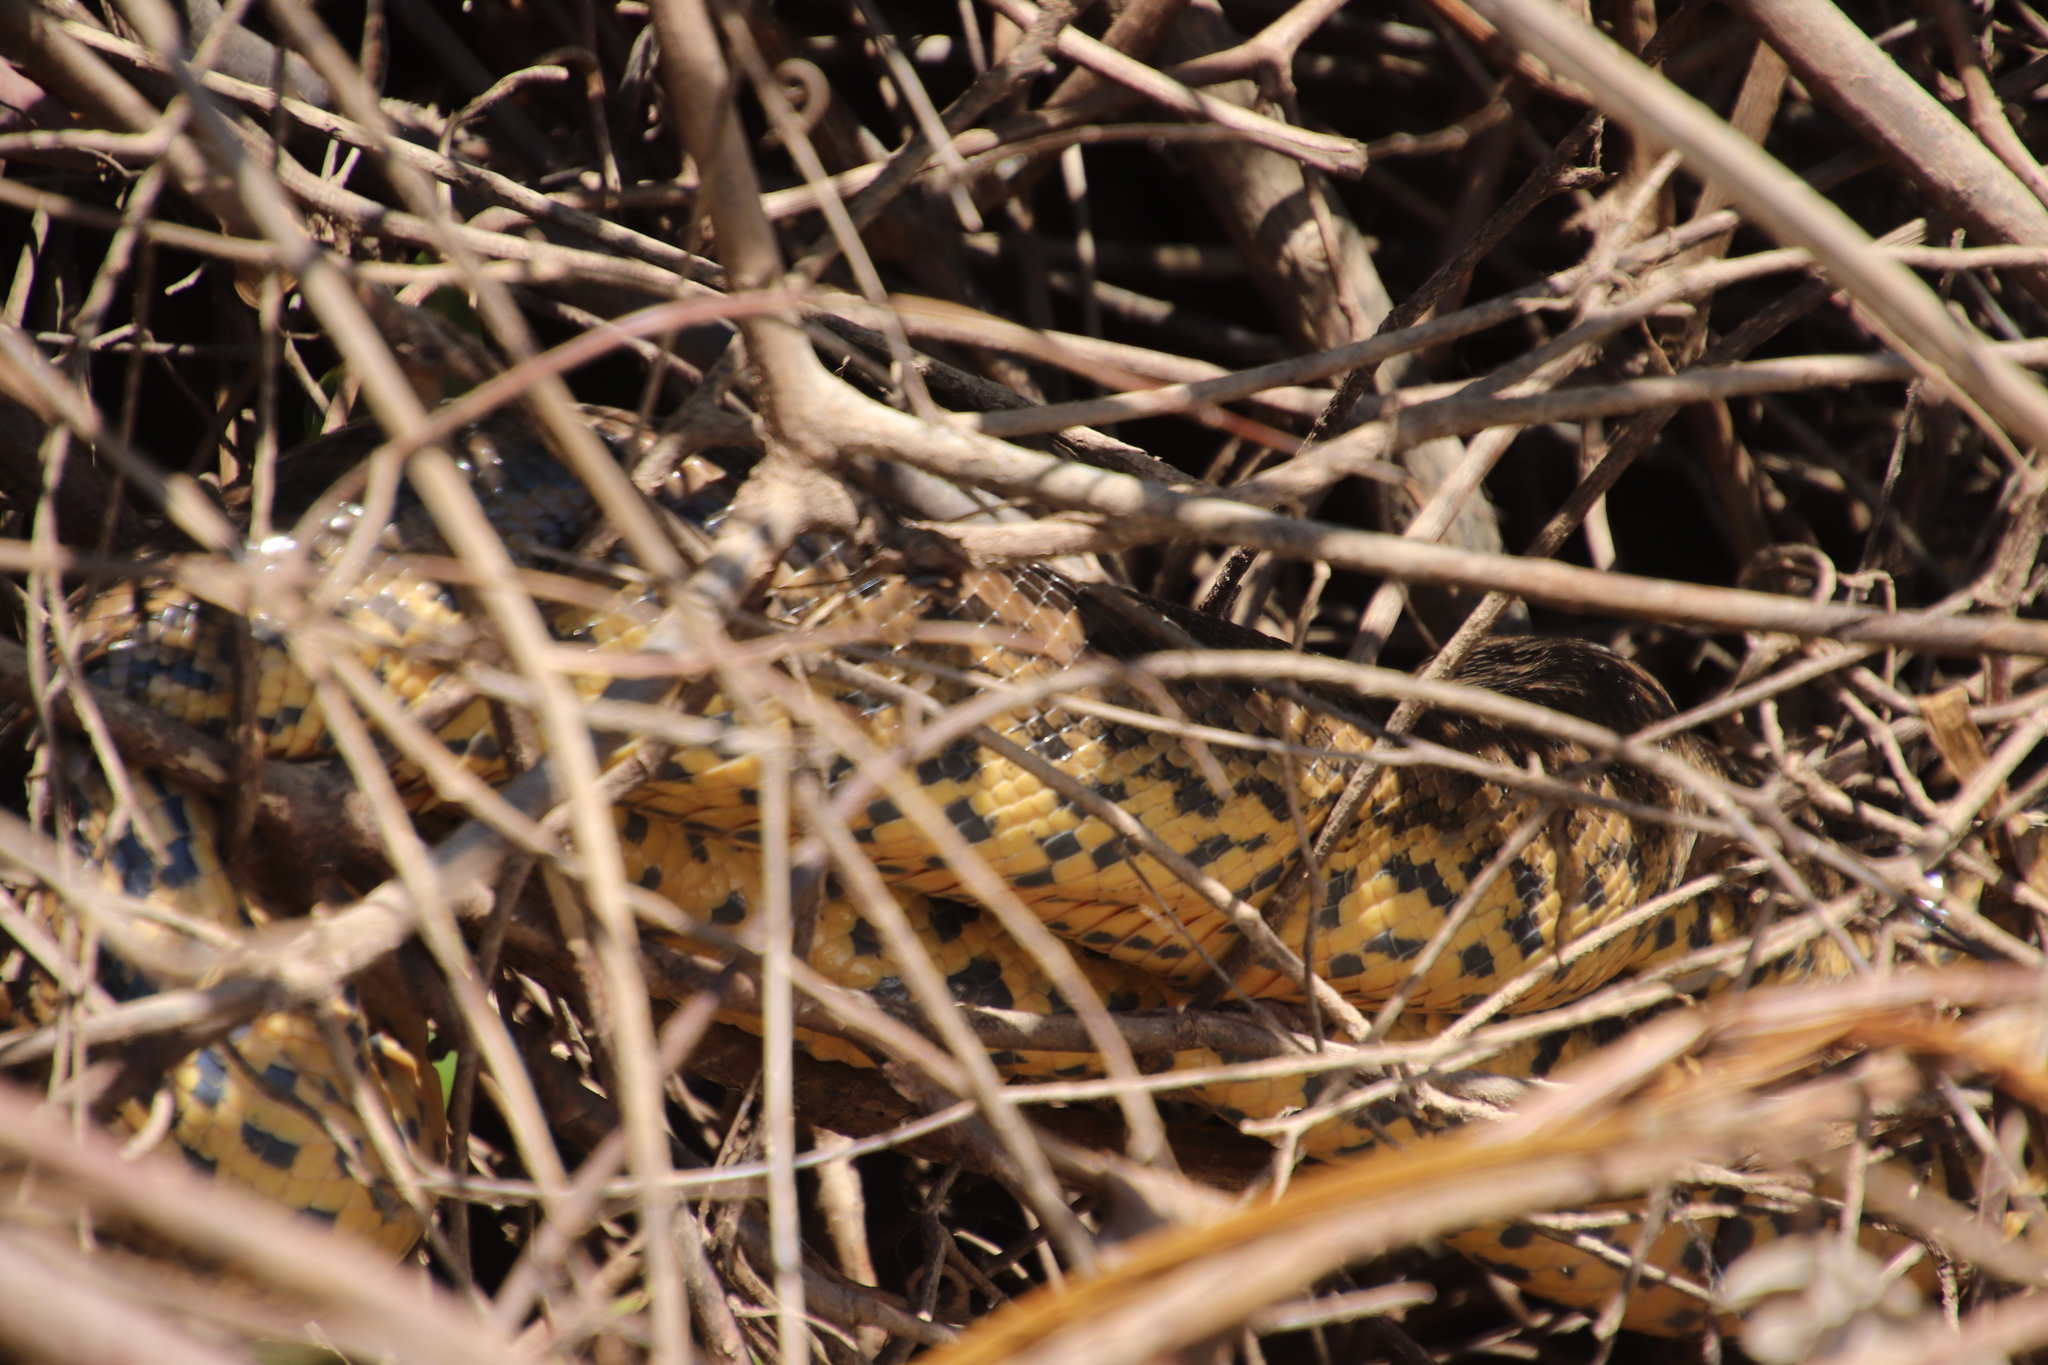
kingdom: Animalia
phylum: Chordata
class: Squamata
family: Boidae
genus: Eunectes
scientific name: Eunectes notaeus
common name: Yellow anaconda
